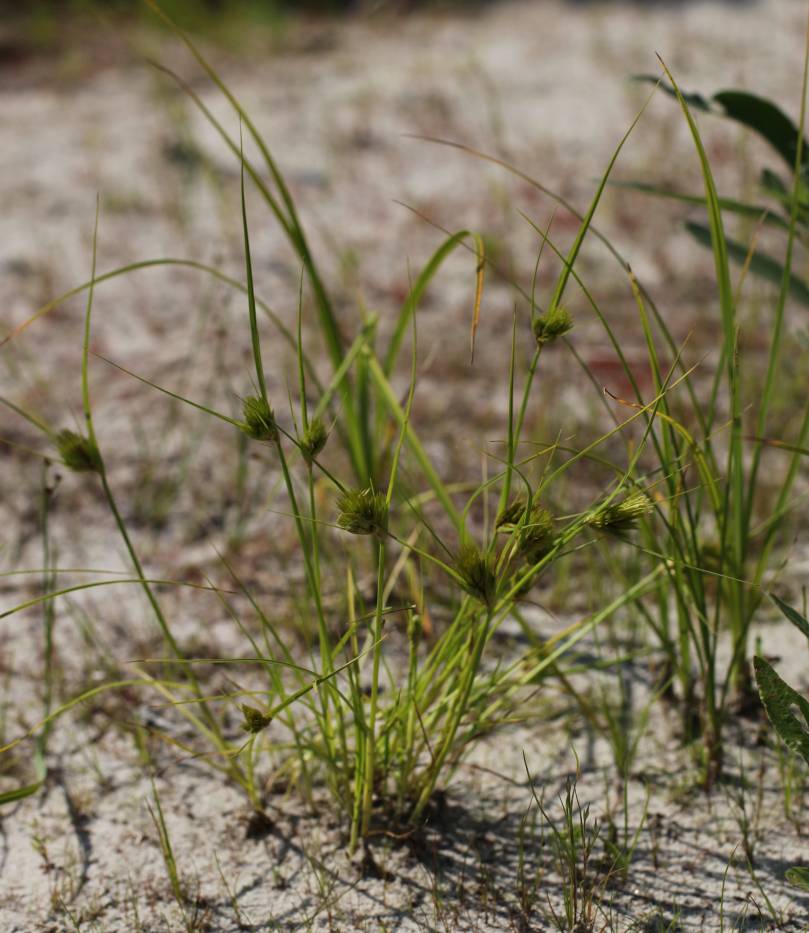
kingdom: Plantae
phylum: Tracheophyta
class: Liliopsida
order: Poales
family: Cyperaceae
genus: Carex
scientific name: Carex bohemica
